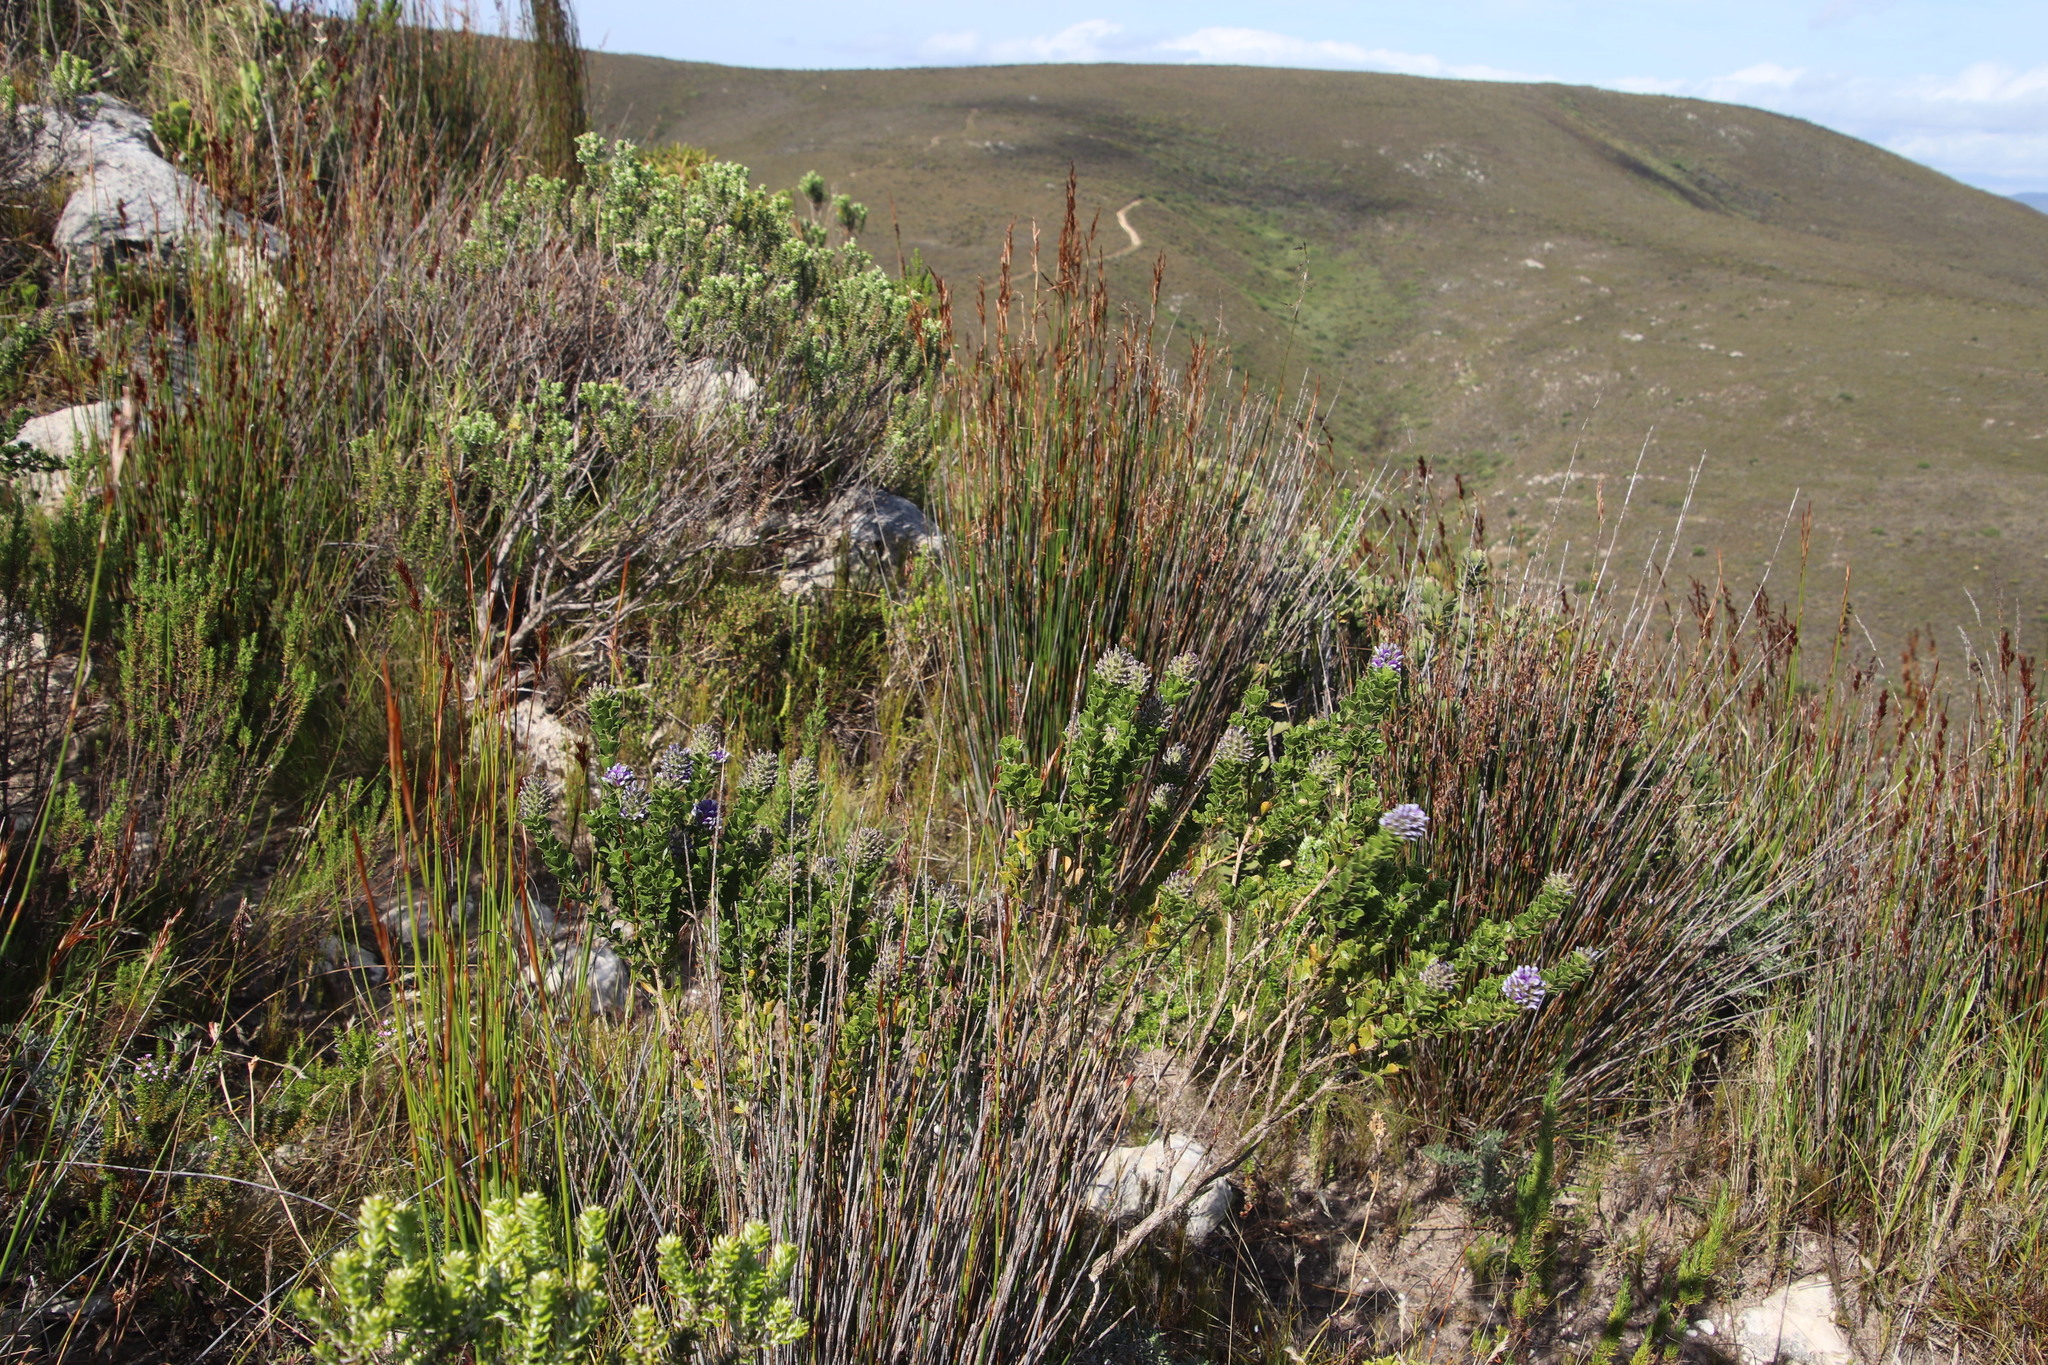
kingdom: Plantae
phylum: Tracheophyta
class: Magnoliopsida
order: Fabales
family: Fabaceae
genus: Psoralea
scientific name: Psoralea bracteolata
